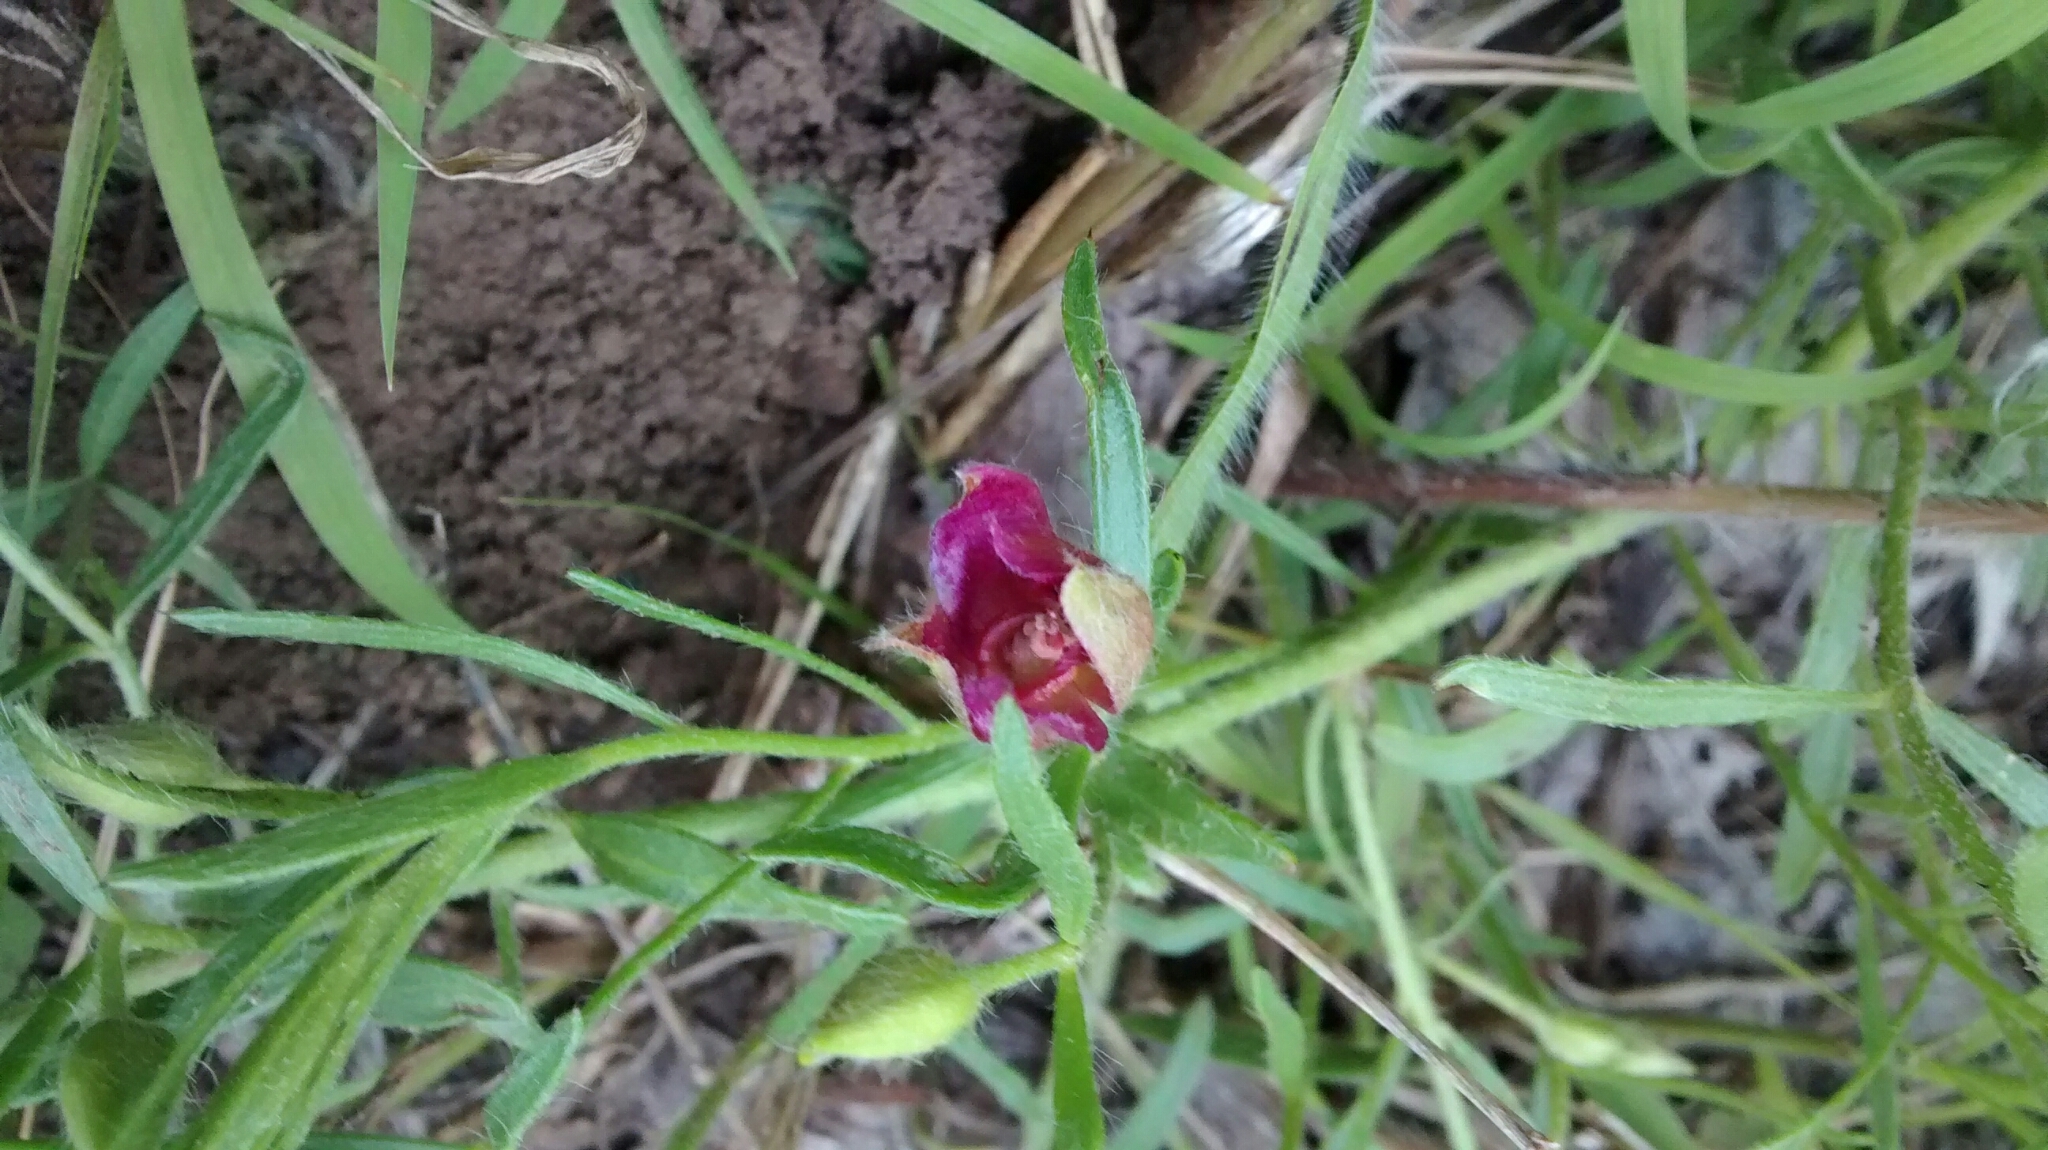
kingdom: Plantae
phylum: Tracheophyta
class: Magnoliopsida
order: Zygophyllales
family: Krameriaceae
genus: Krameria
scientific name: Krameria lanceolata
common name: Ratany
